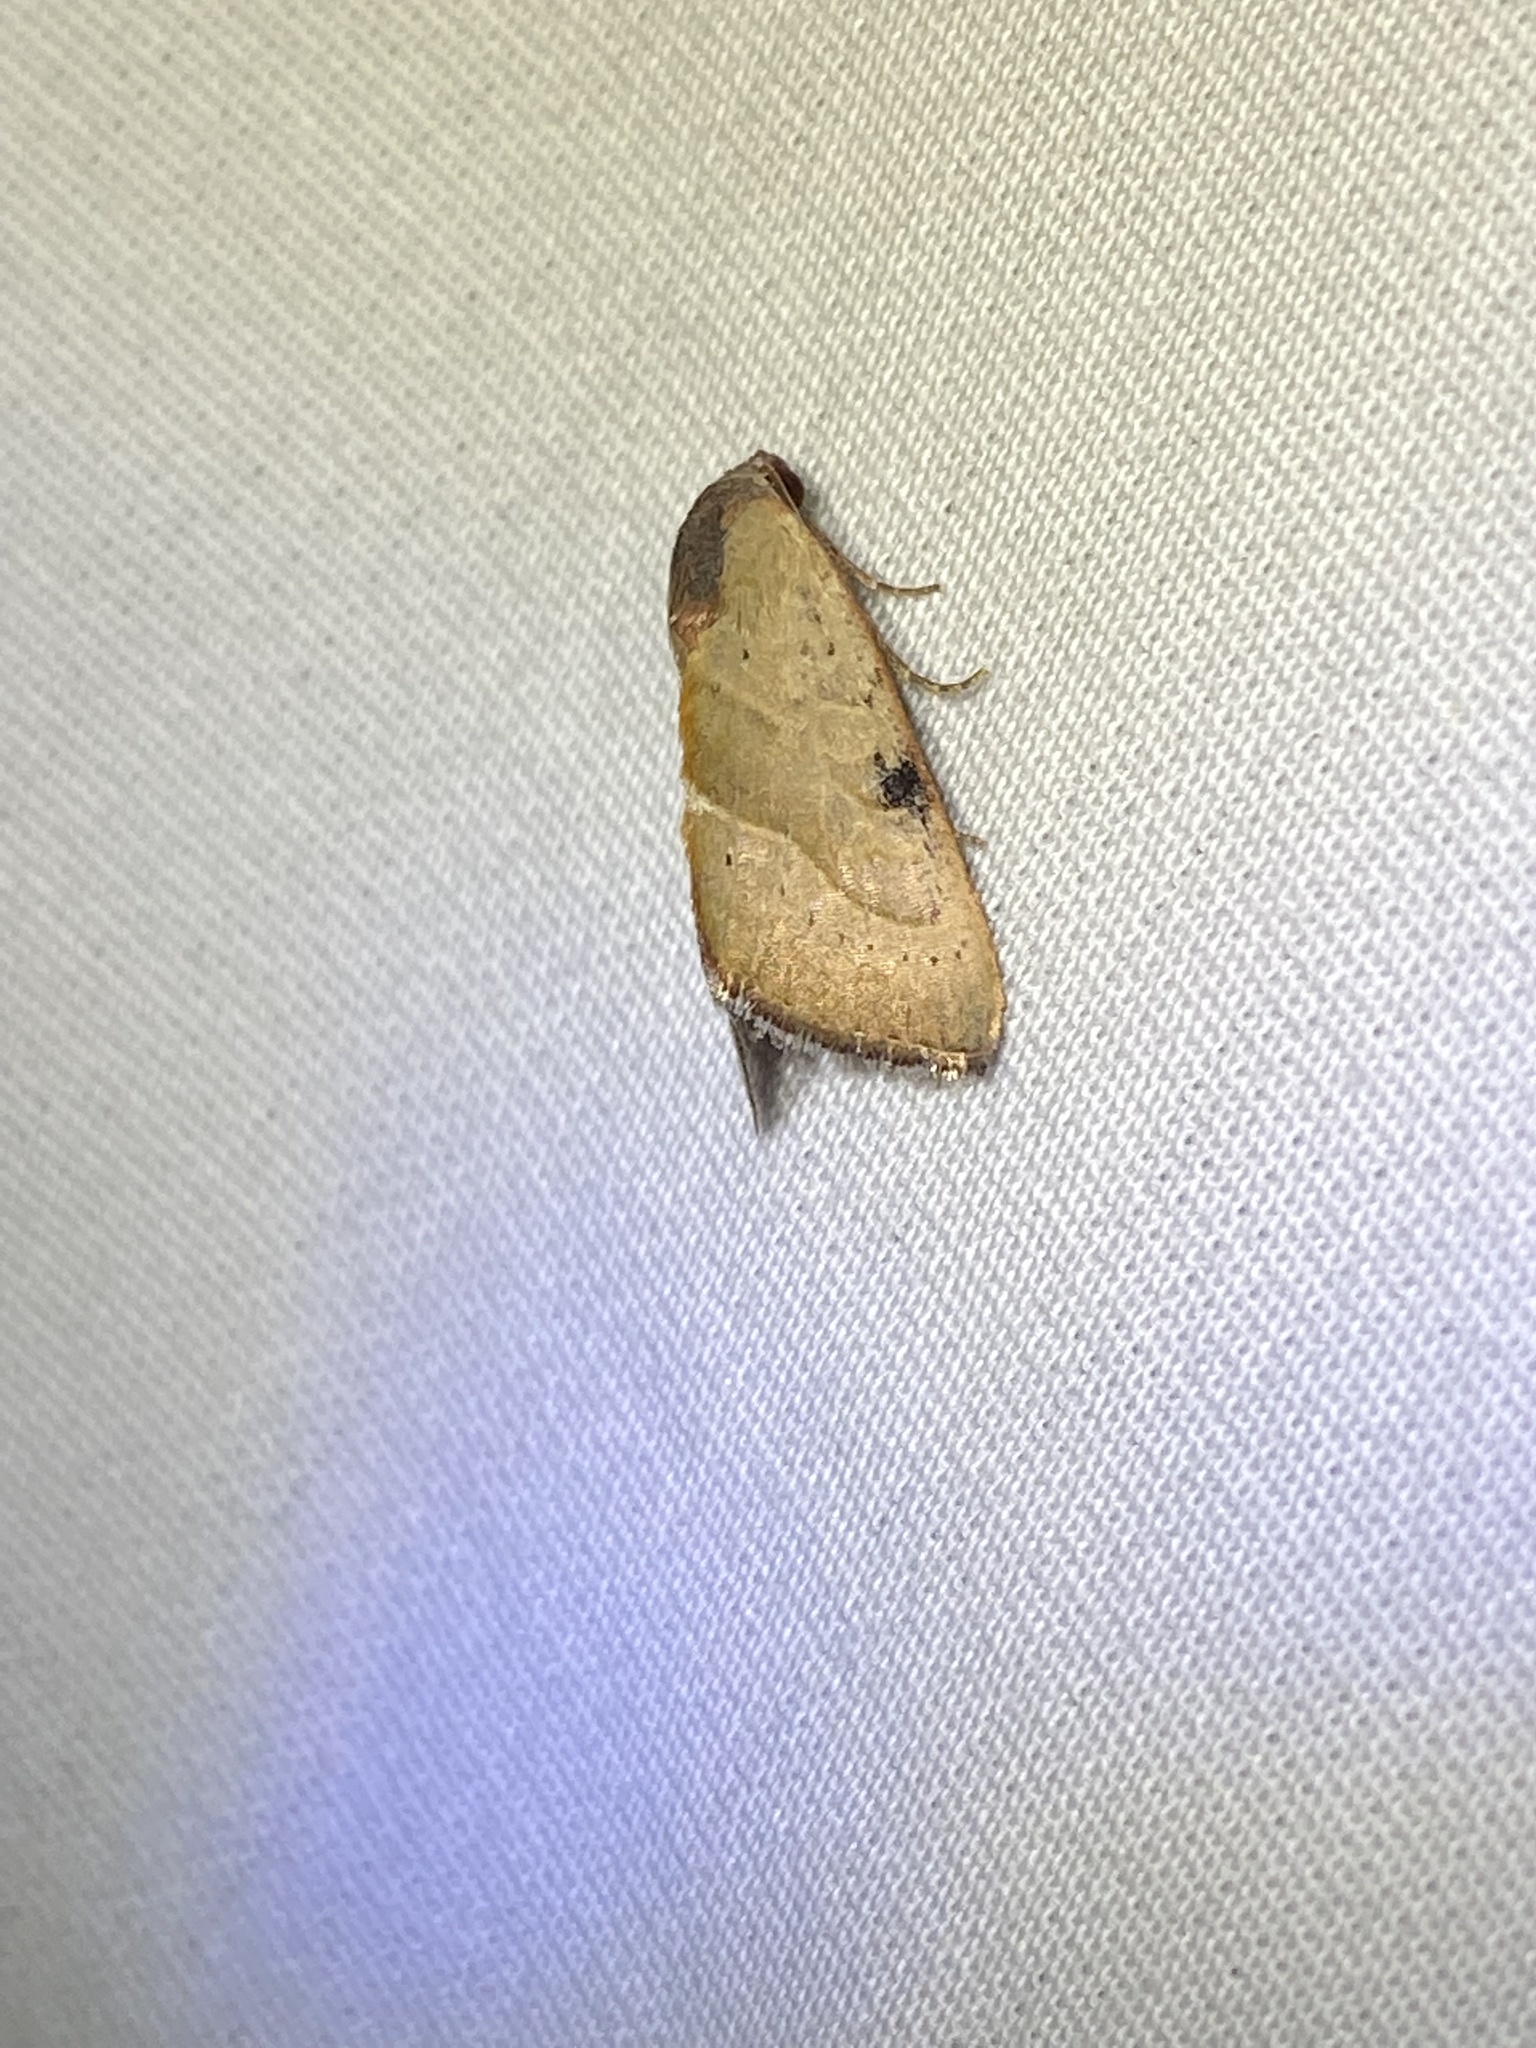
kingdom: Animalia
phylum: Arthropoda
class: Insecta
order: Lepidoptera
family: Noctuidae
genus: Galgula
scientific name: Galgula partita
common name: Wedgeling
